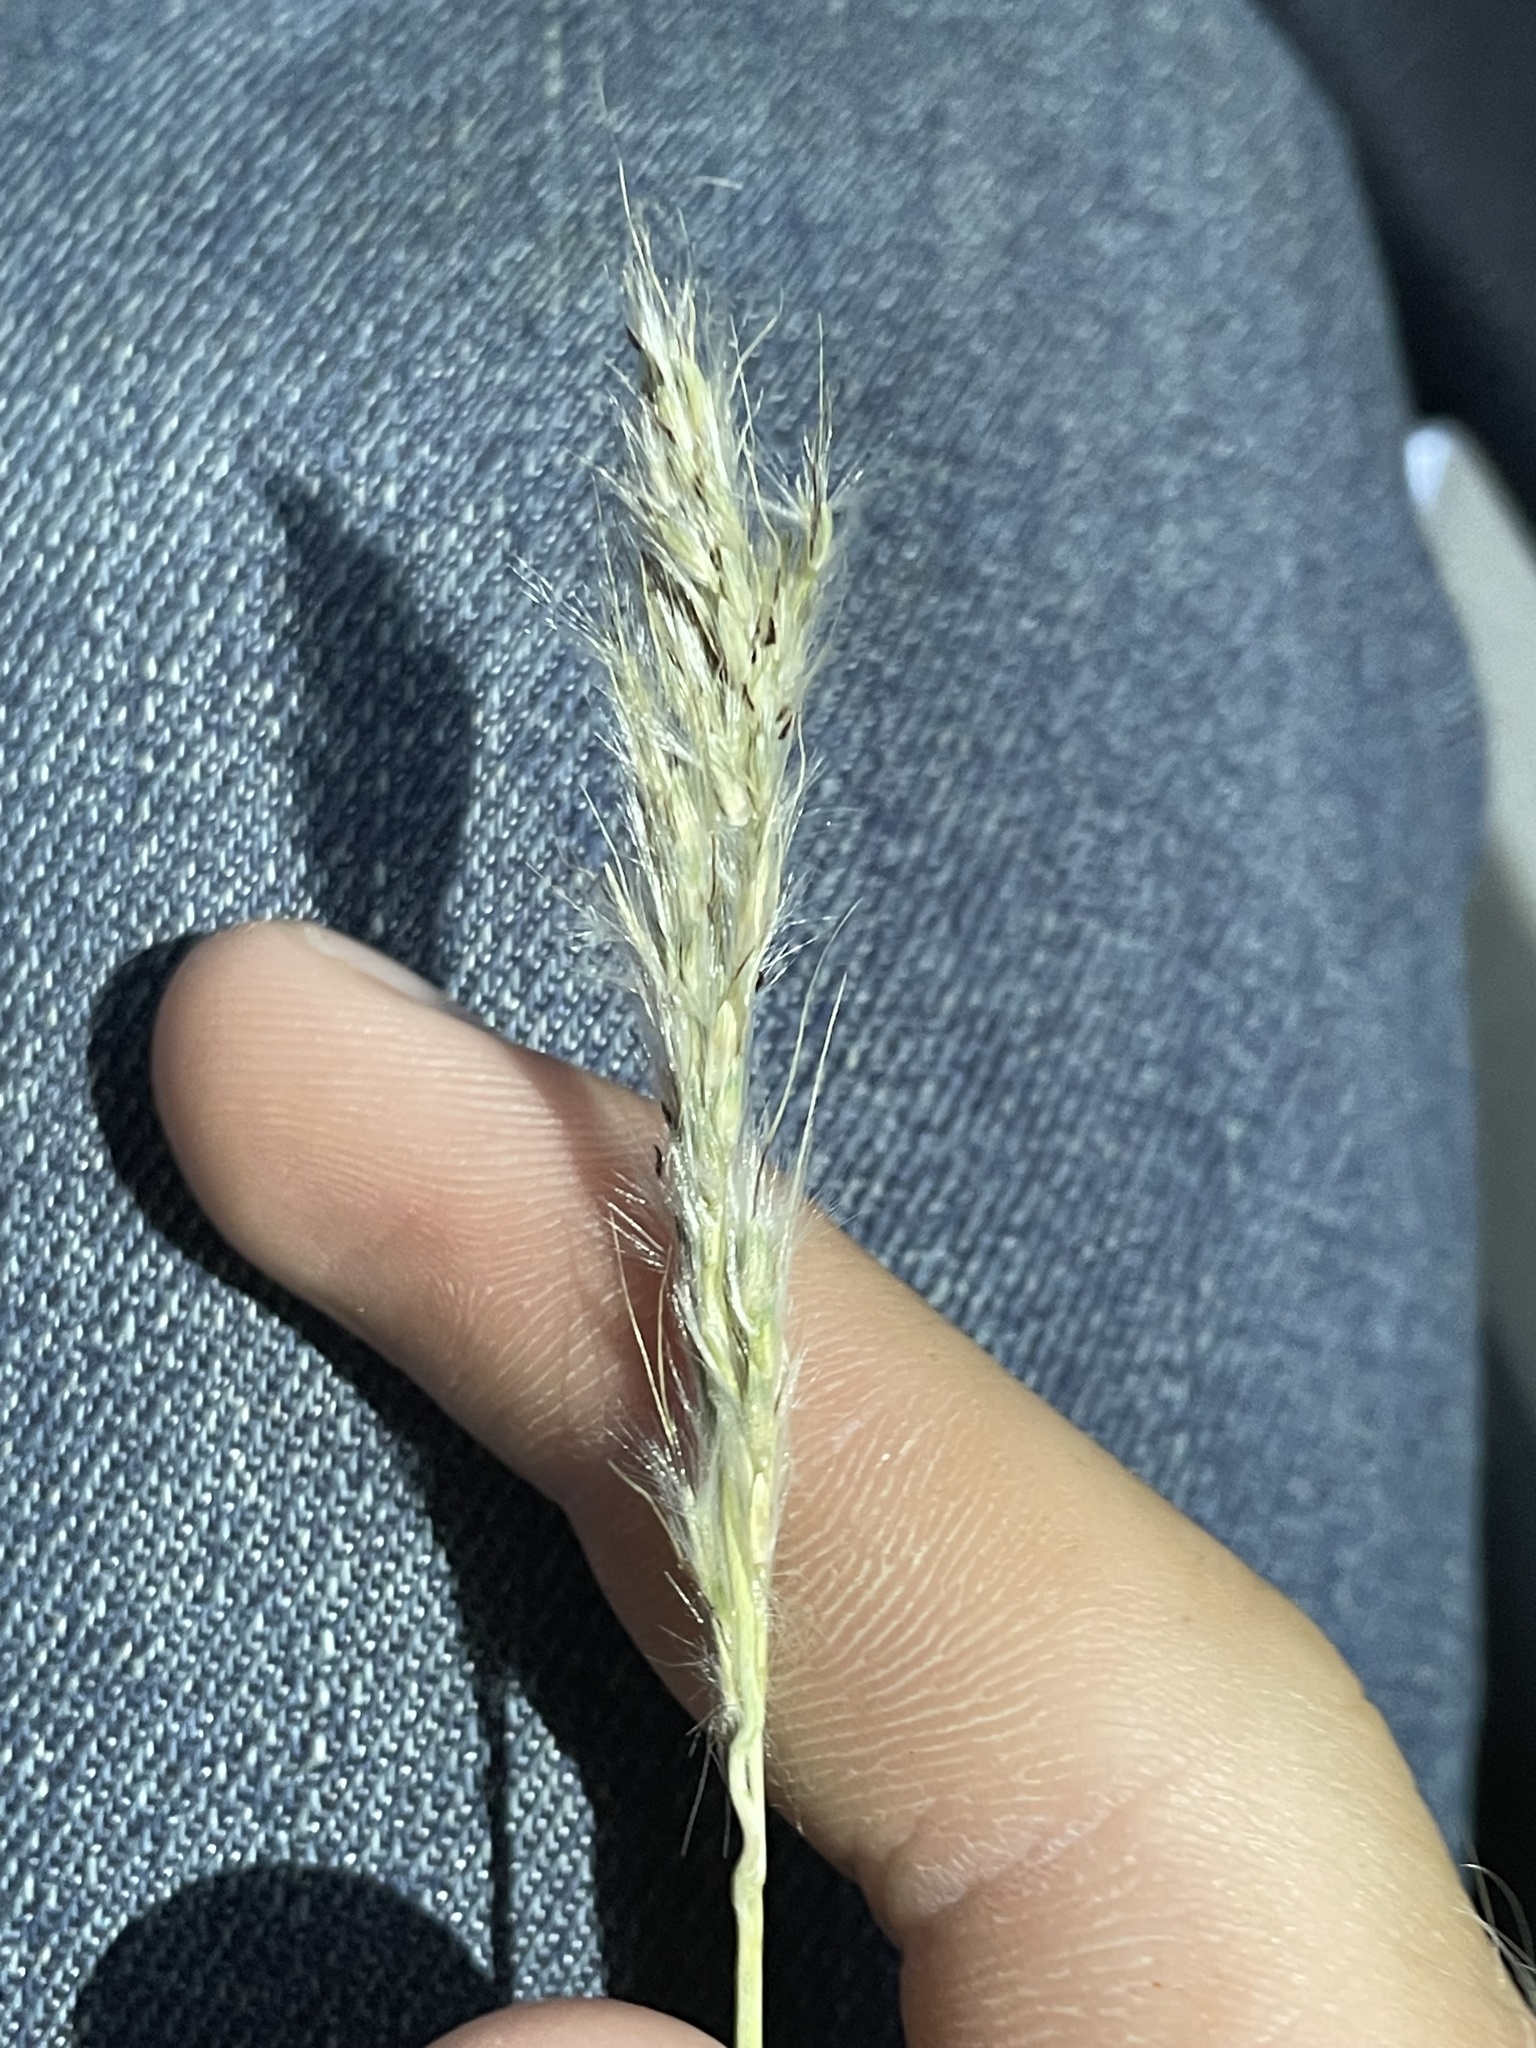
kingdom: Plantae
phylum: Tracheophyta
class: Liliopsida
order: Poales
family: Poaceae
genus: Bothriochloa
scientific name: Bothriochloa barbinodis
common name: Cane bluestem
